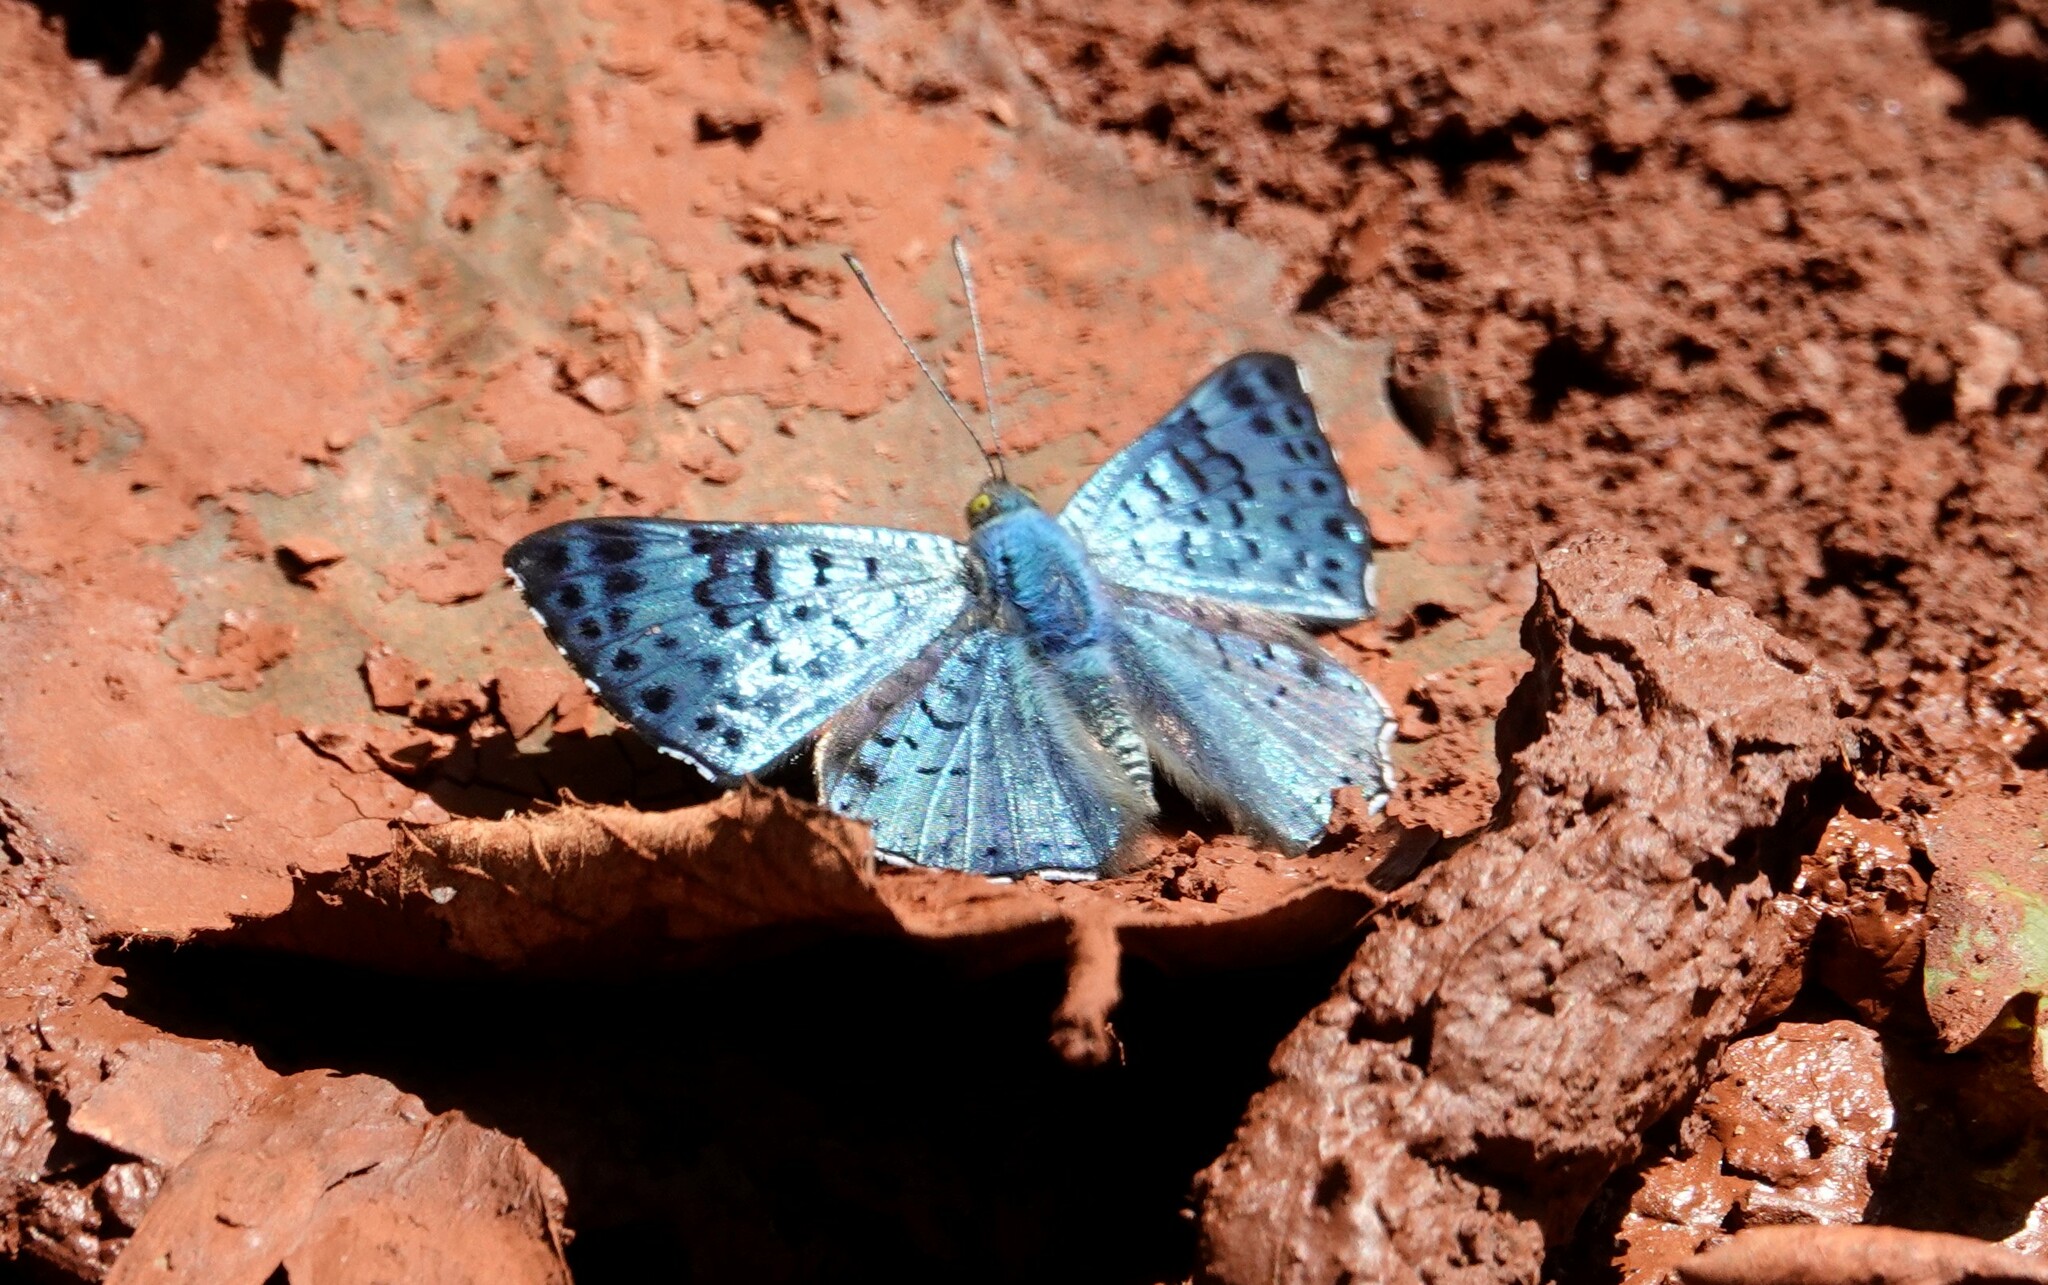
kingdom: Animalia
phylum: Arthropoda
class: Insecta
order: Lepidoptera
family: Riodinidae
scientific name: Riodinidae
